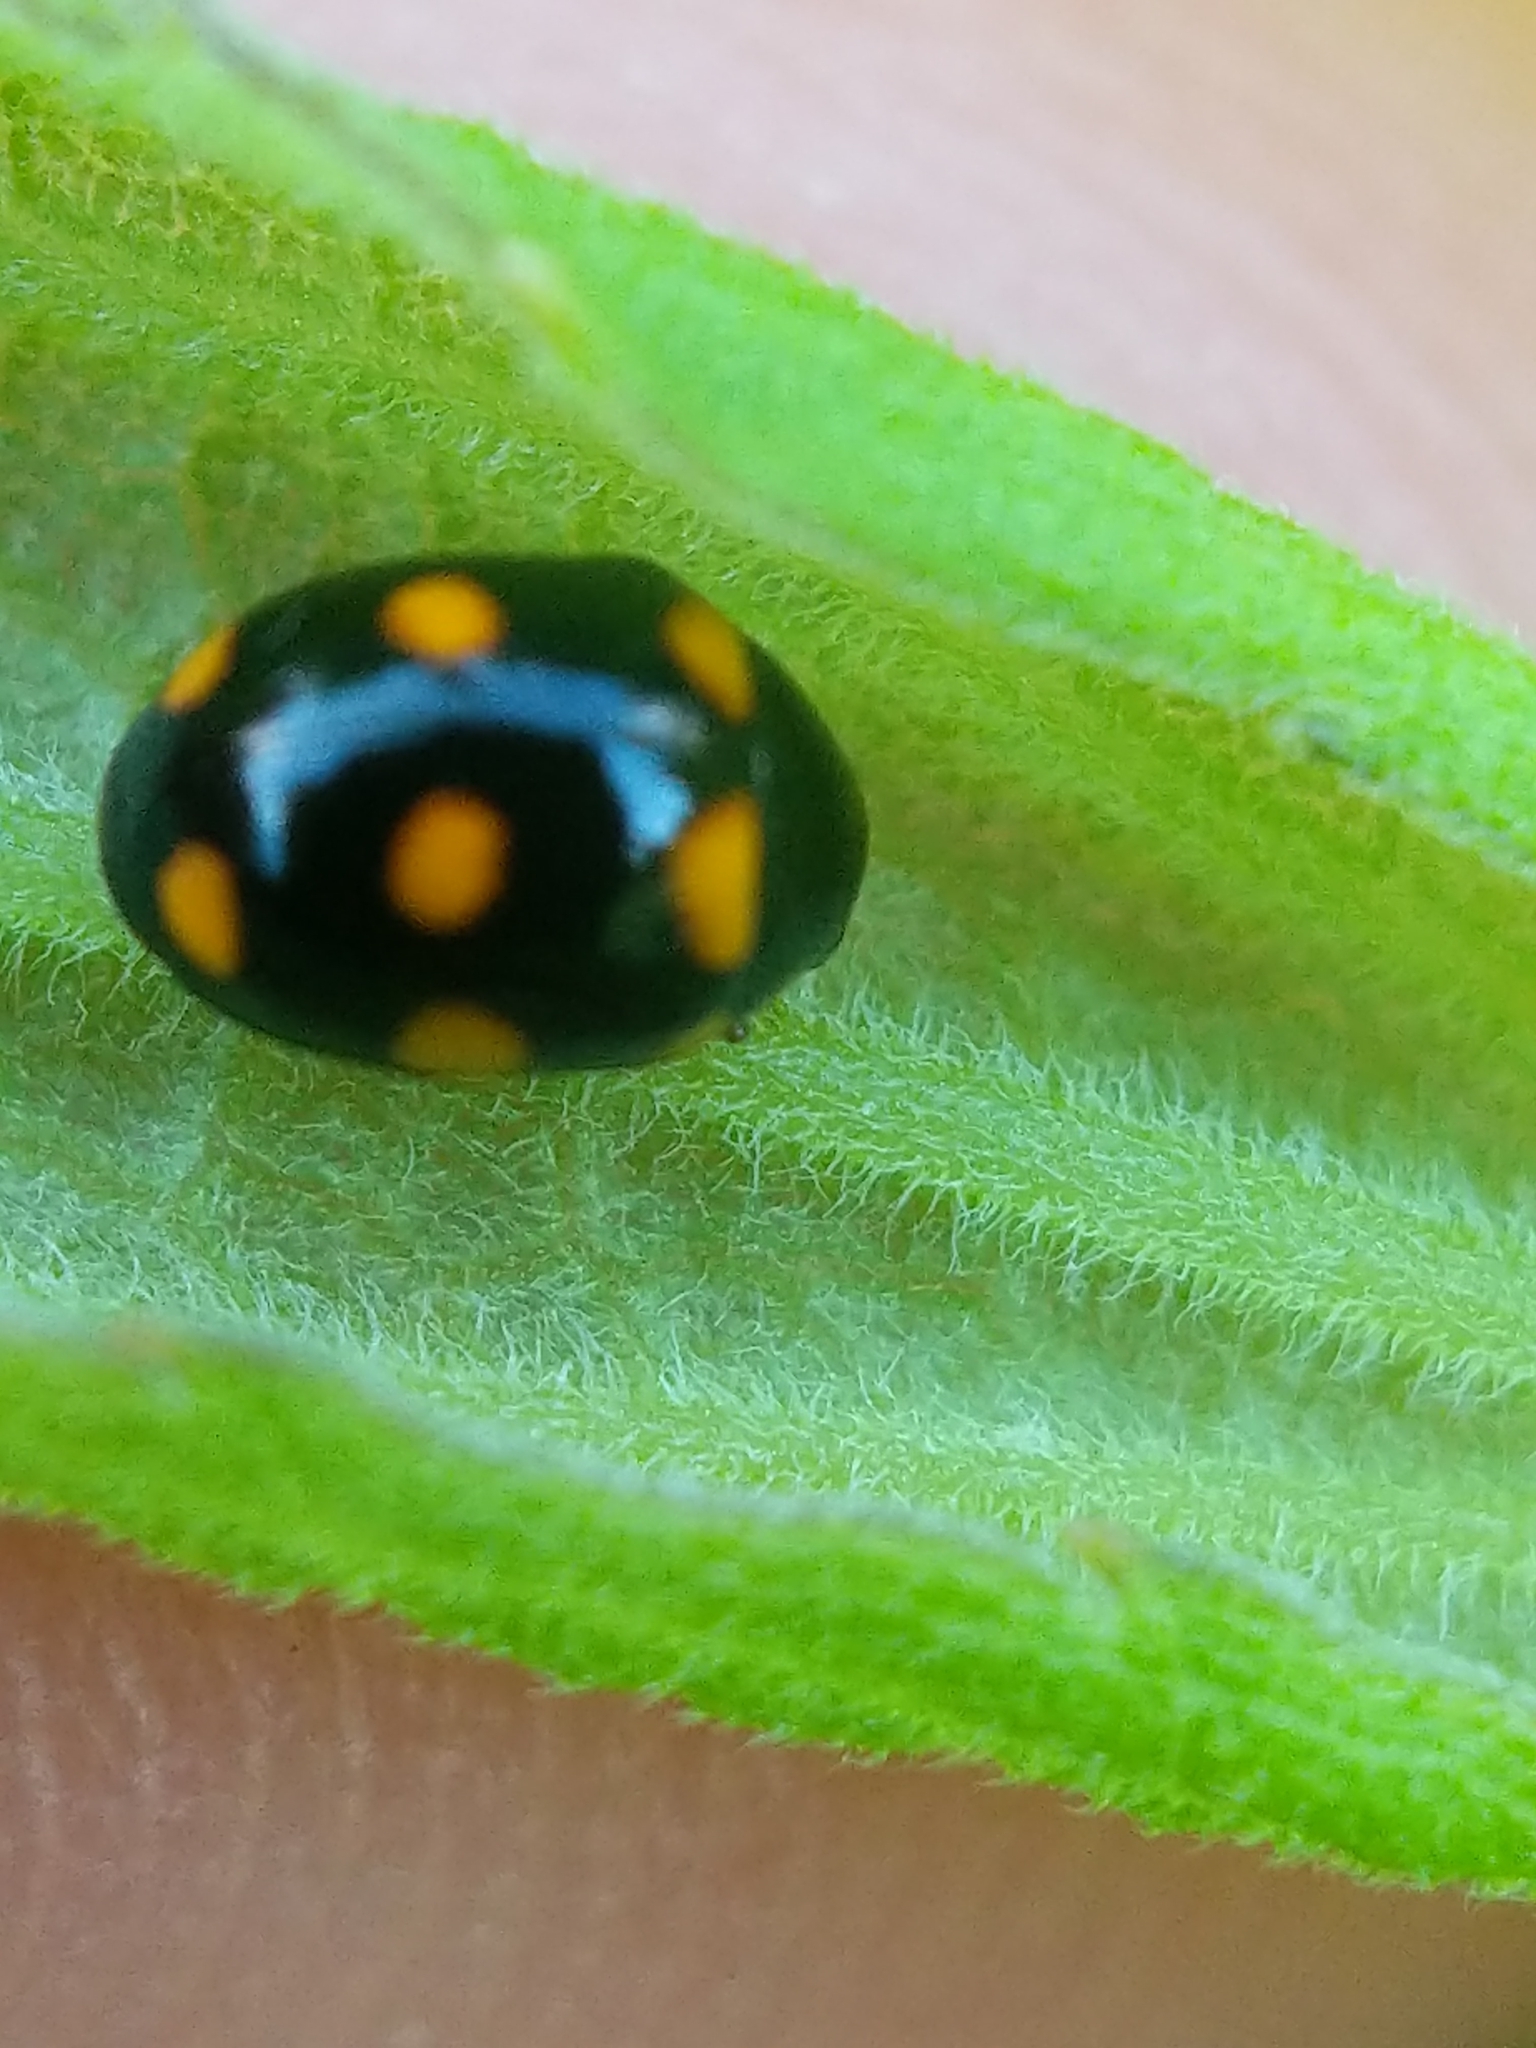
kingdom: Animalia
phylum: Arthropoda
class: Insecta
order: Coleoptera
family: Coccinellidae
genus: Brachiacantha
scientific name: Brachiacantha ursina
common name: Ursine spurleg lady beetle
